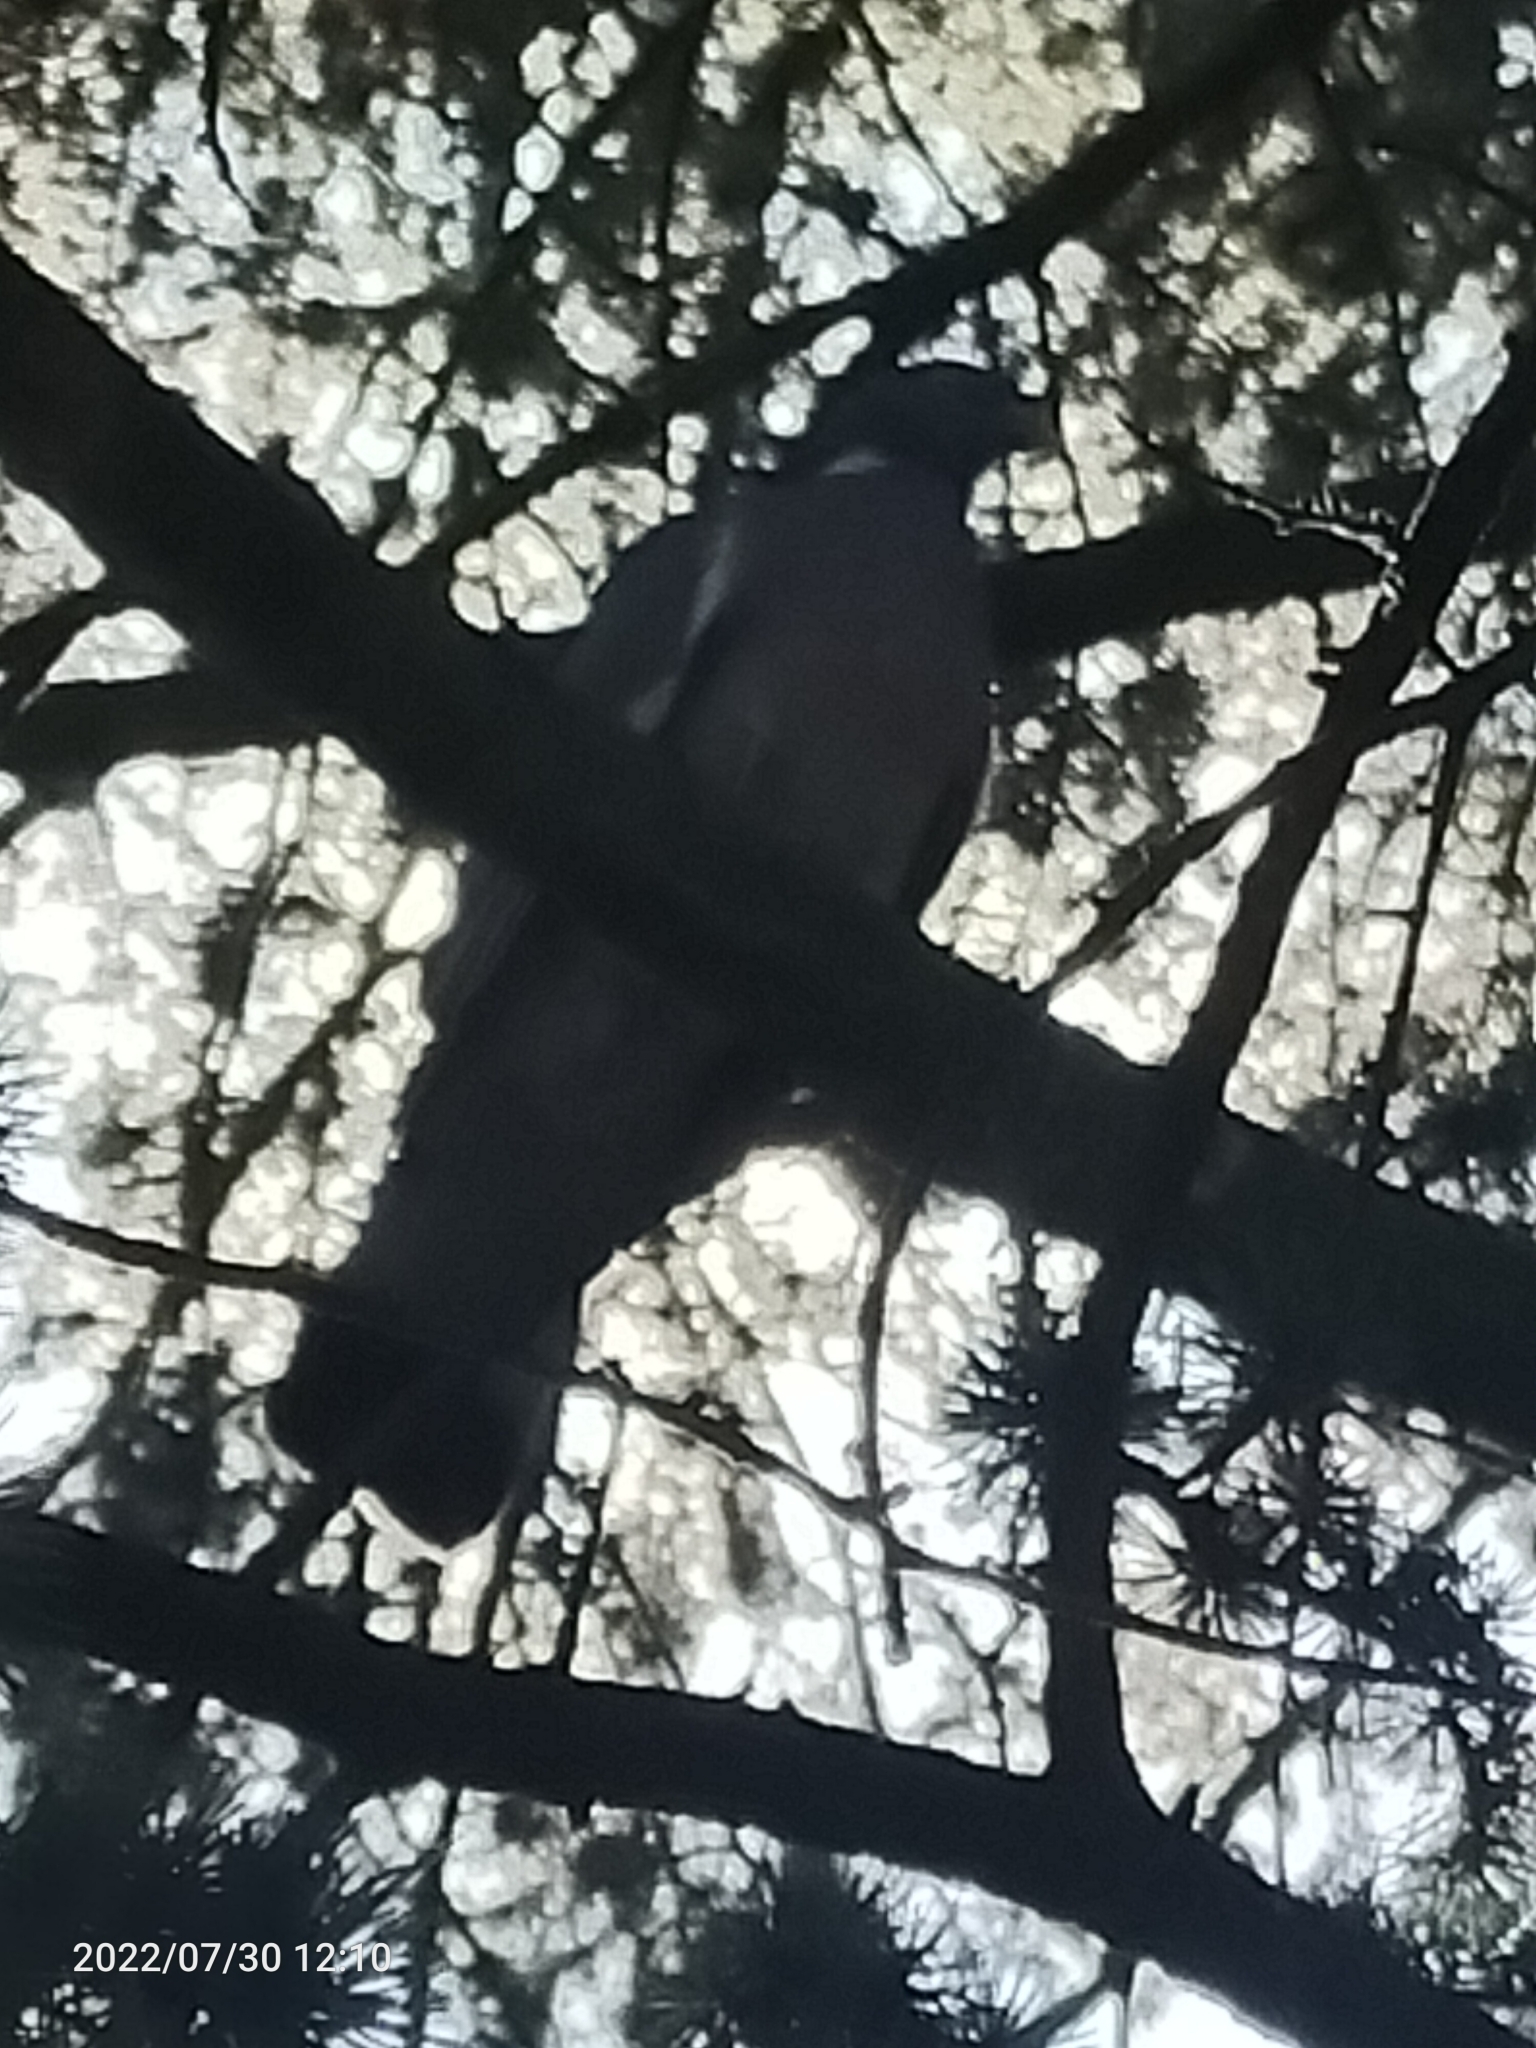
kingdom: Animalia
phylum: Chordata
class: Aves
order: Columbiformes
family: Columbidae
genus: Columba
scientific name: Columba palumbus
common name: Common wood pigeon
